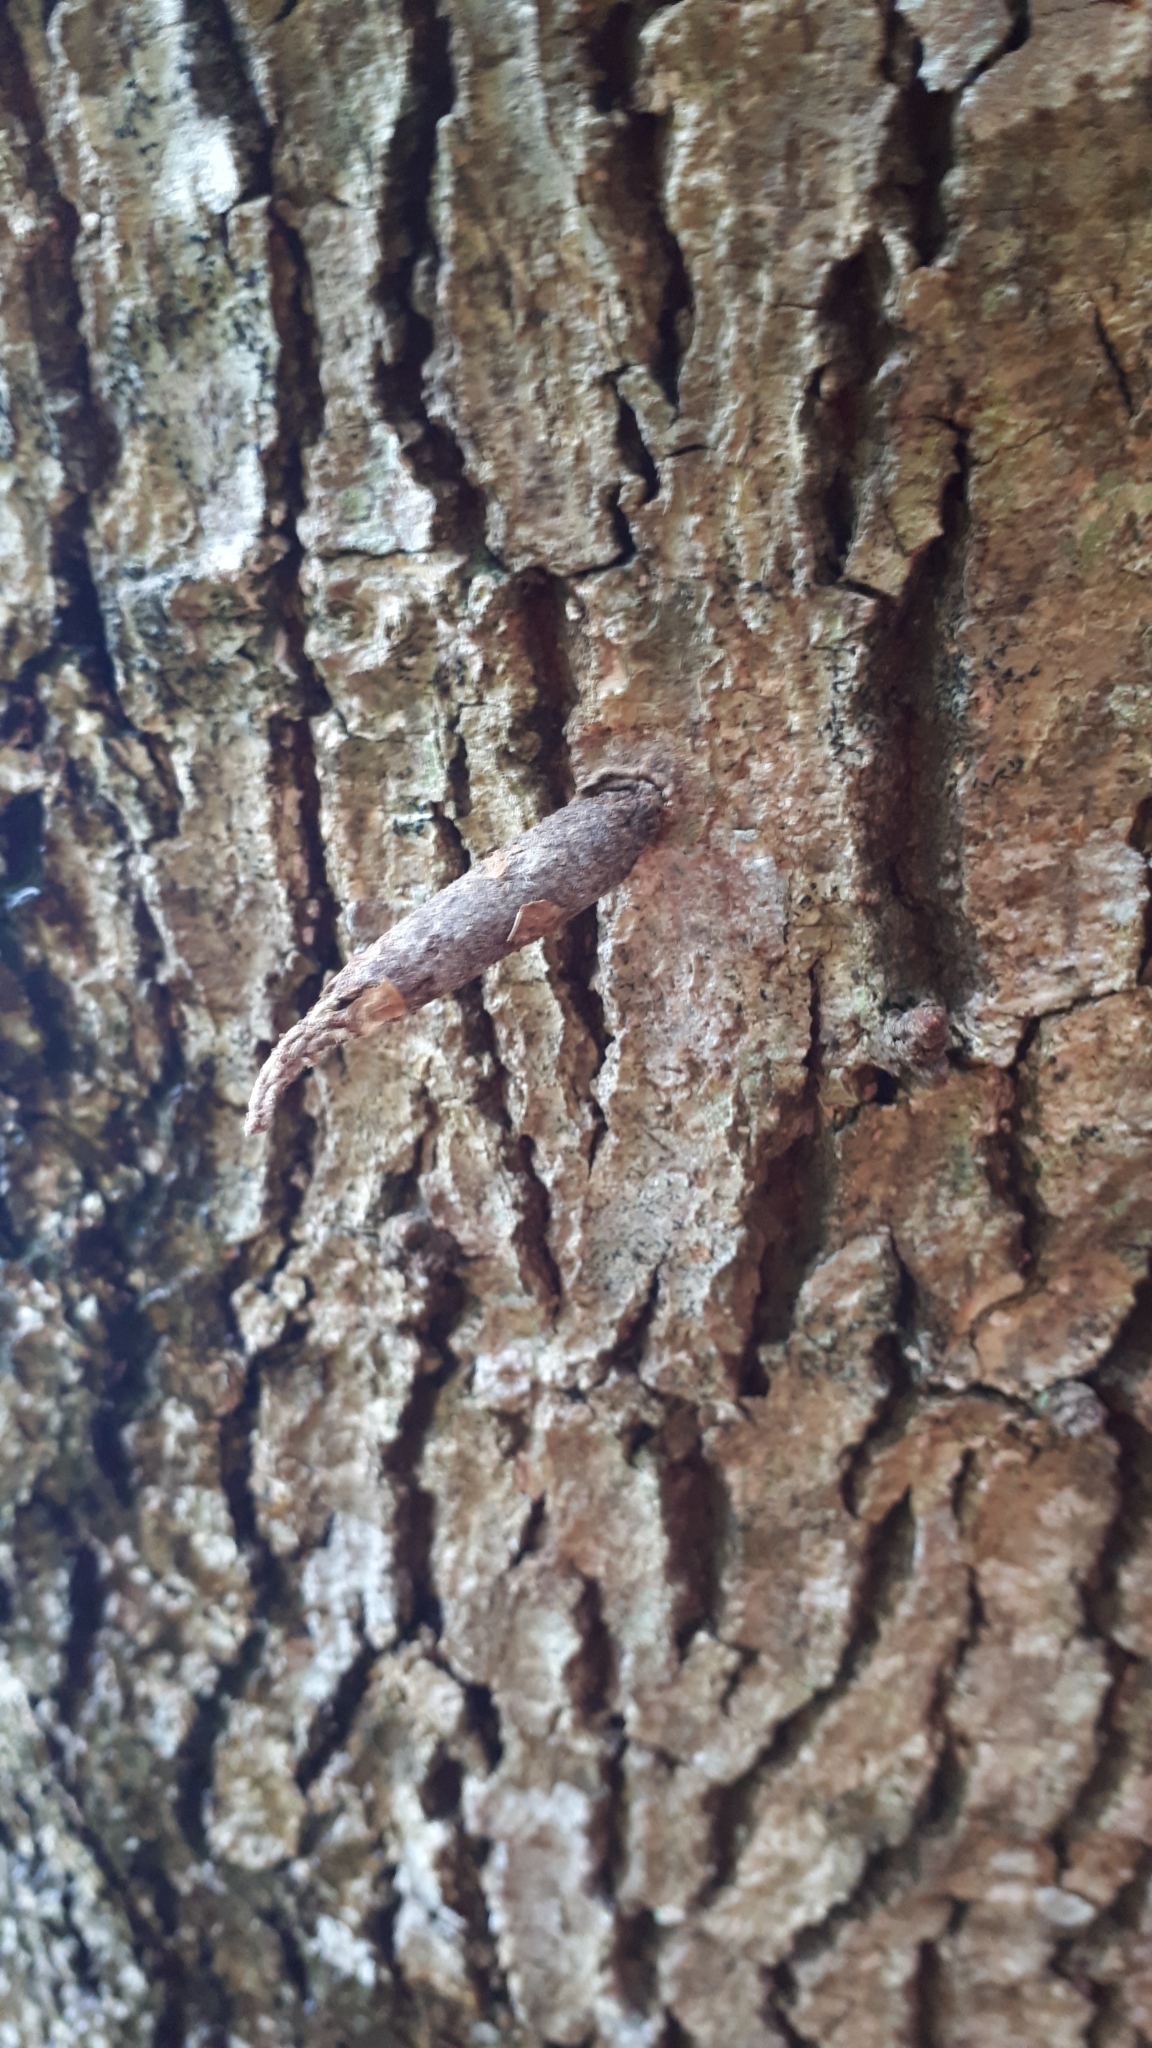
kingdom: Animalia
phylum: Arthropoda
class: Insecta
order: Lepidoptera
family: Psychidae
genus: Liothula
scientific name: Liothula omnivora
